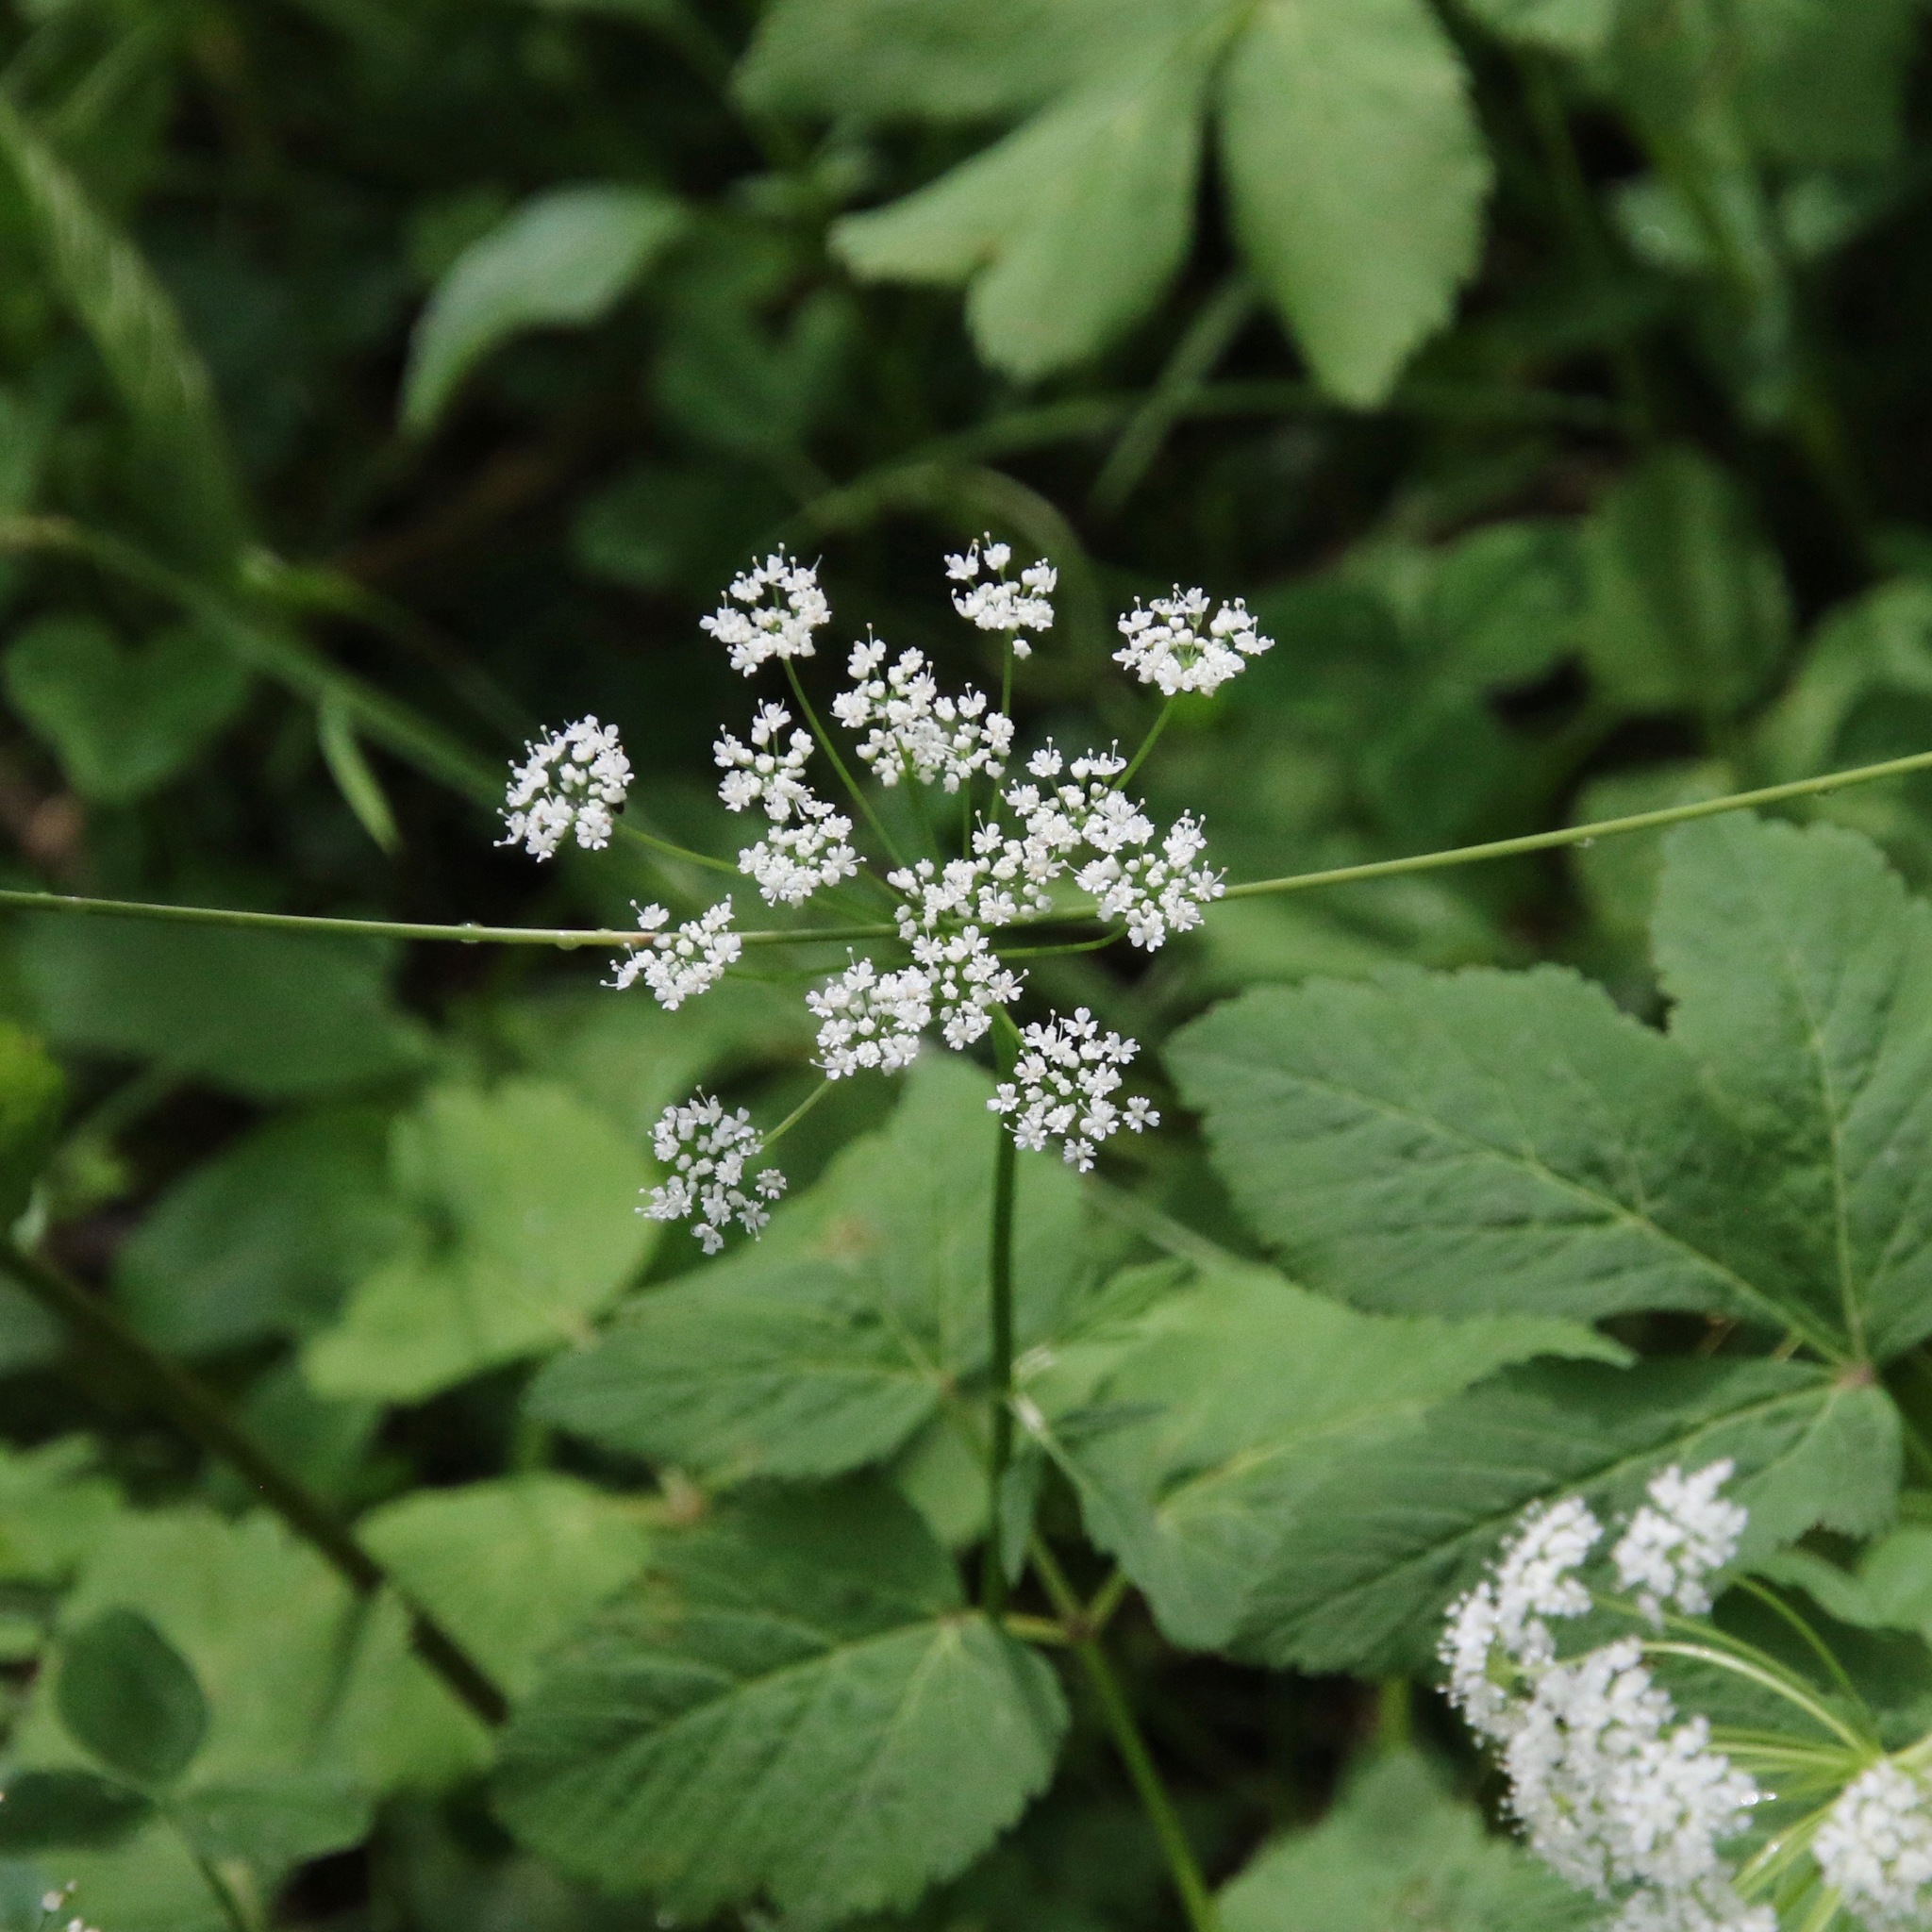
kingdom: Plantae
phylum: Tracheophyta
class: Magnoliopsida
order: Apiales
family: Apiaceae
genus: Aegopodium
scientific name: Aegopodium podagraria
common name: Ground-elder
